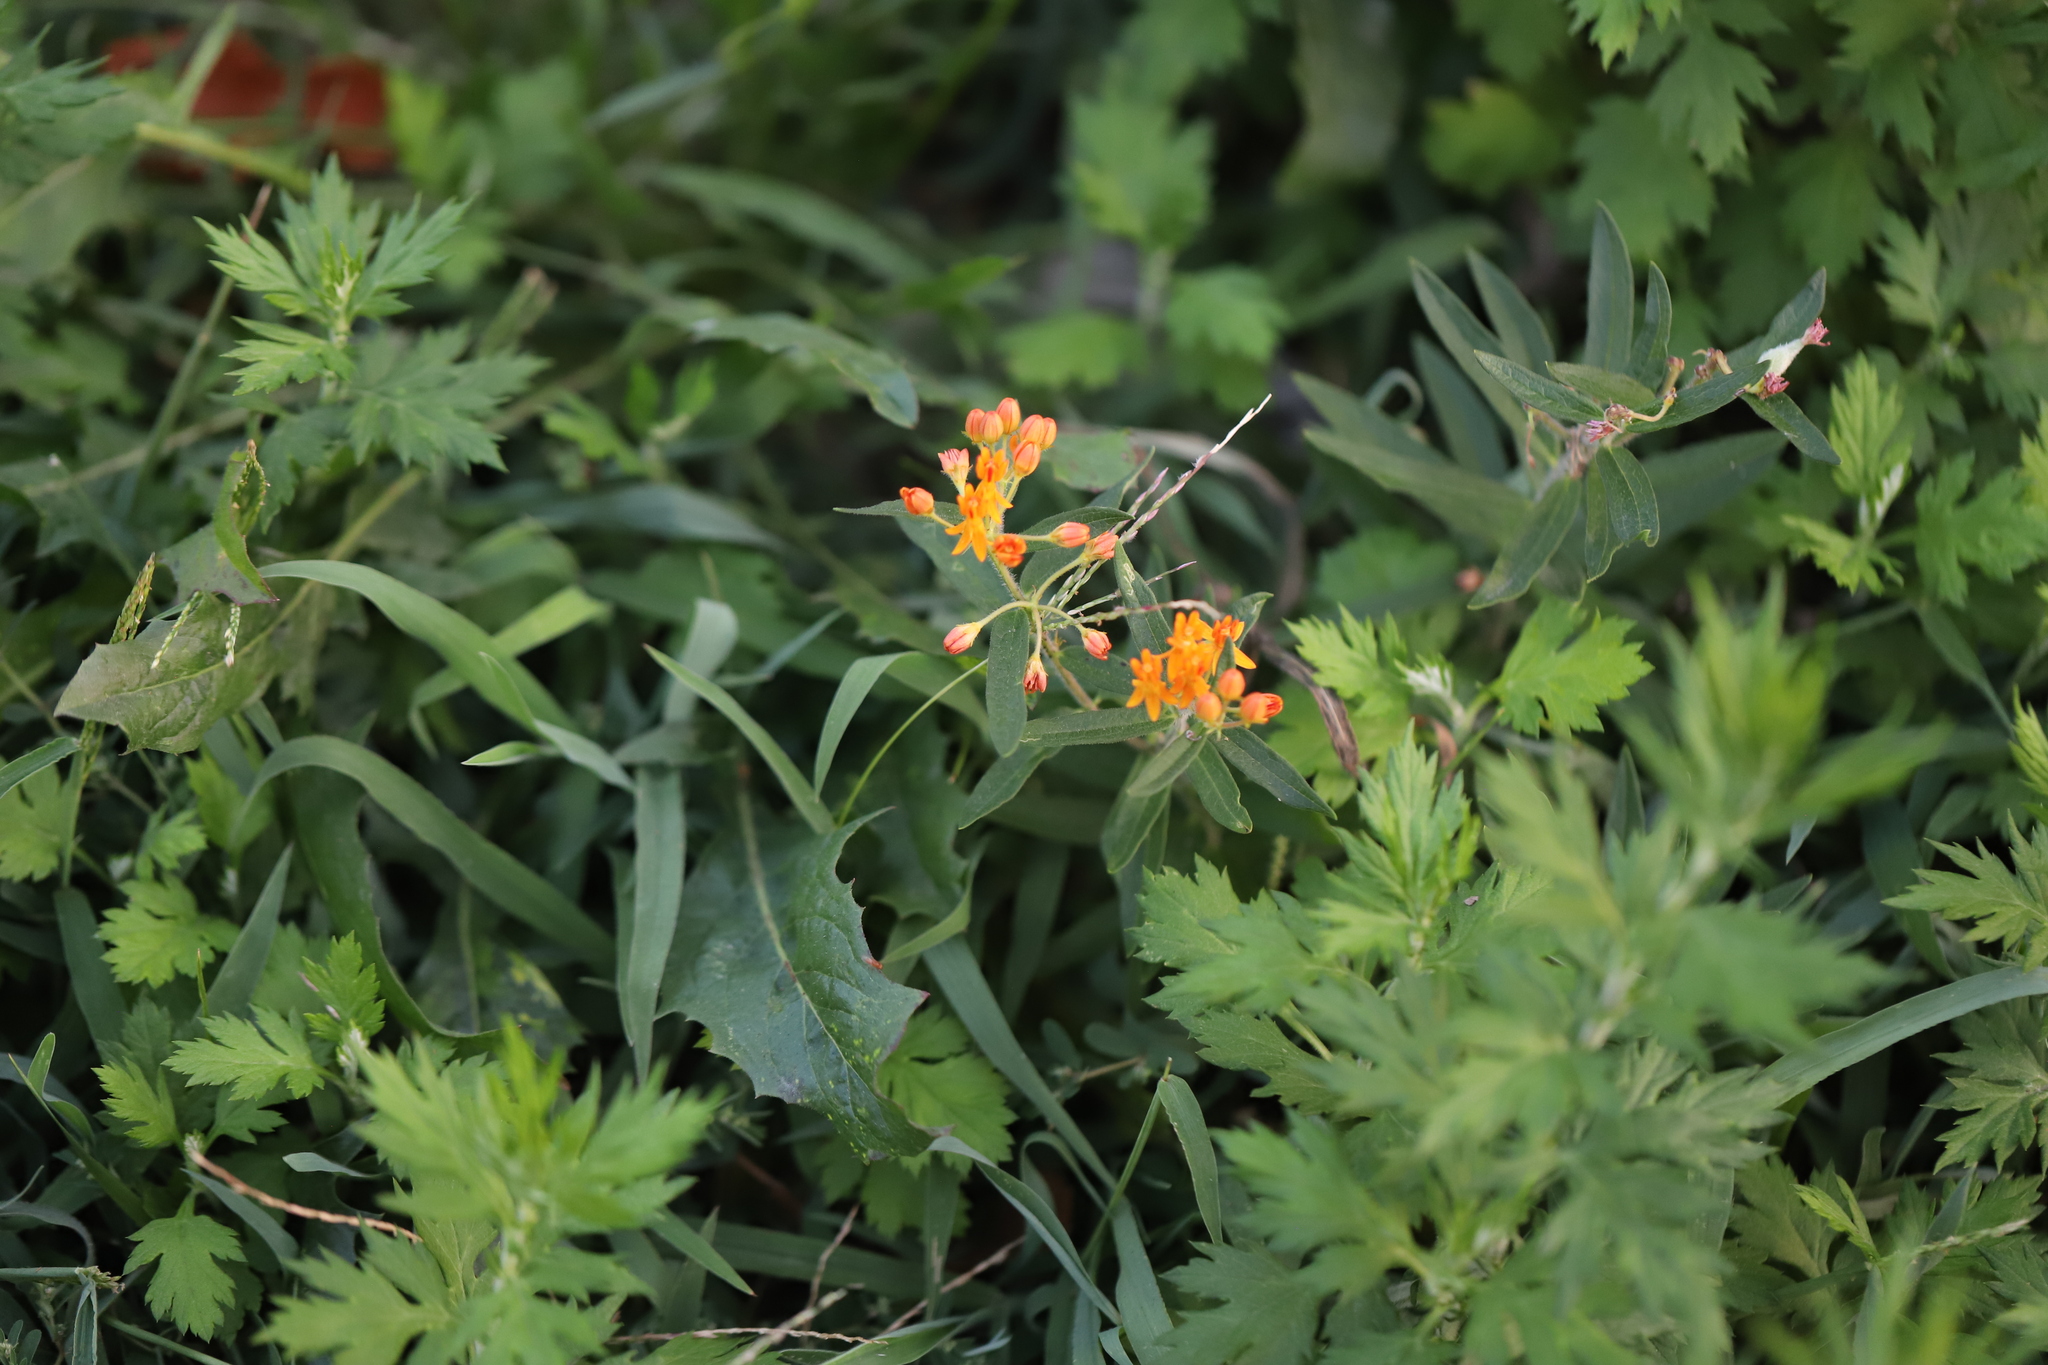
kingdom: Plantae
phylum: Tracheophyta
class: Magnoliopsida
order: Gentianales
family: Apocynaceae
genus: Asclepias
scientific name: Asclepias tuberosa
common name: Butterfly milkweed
